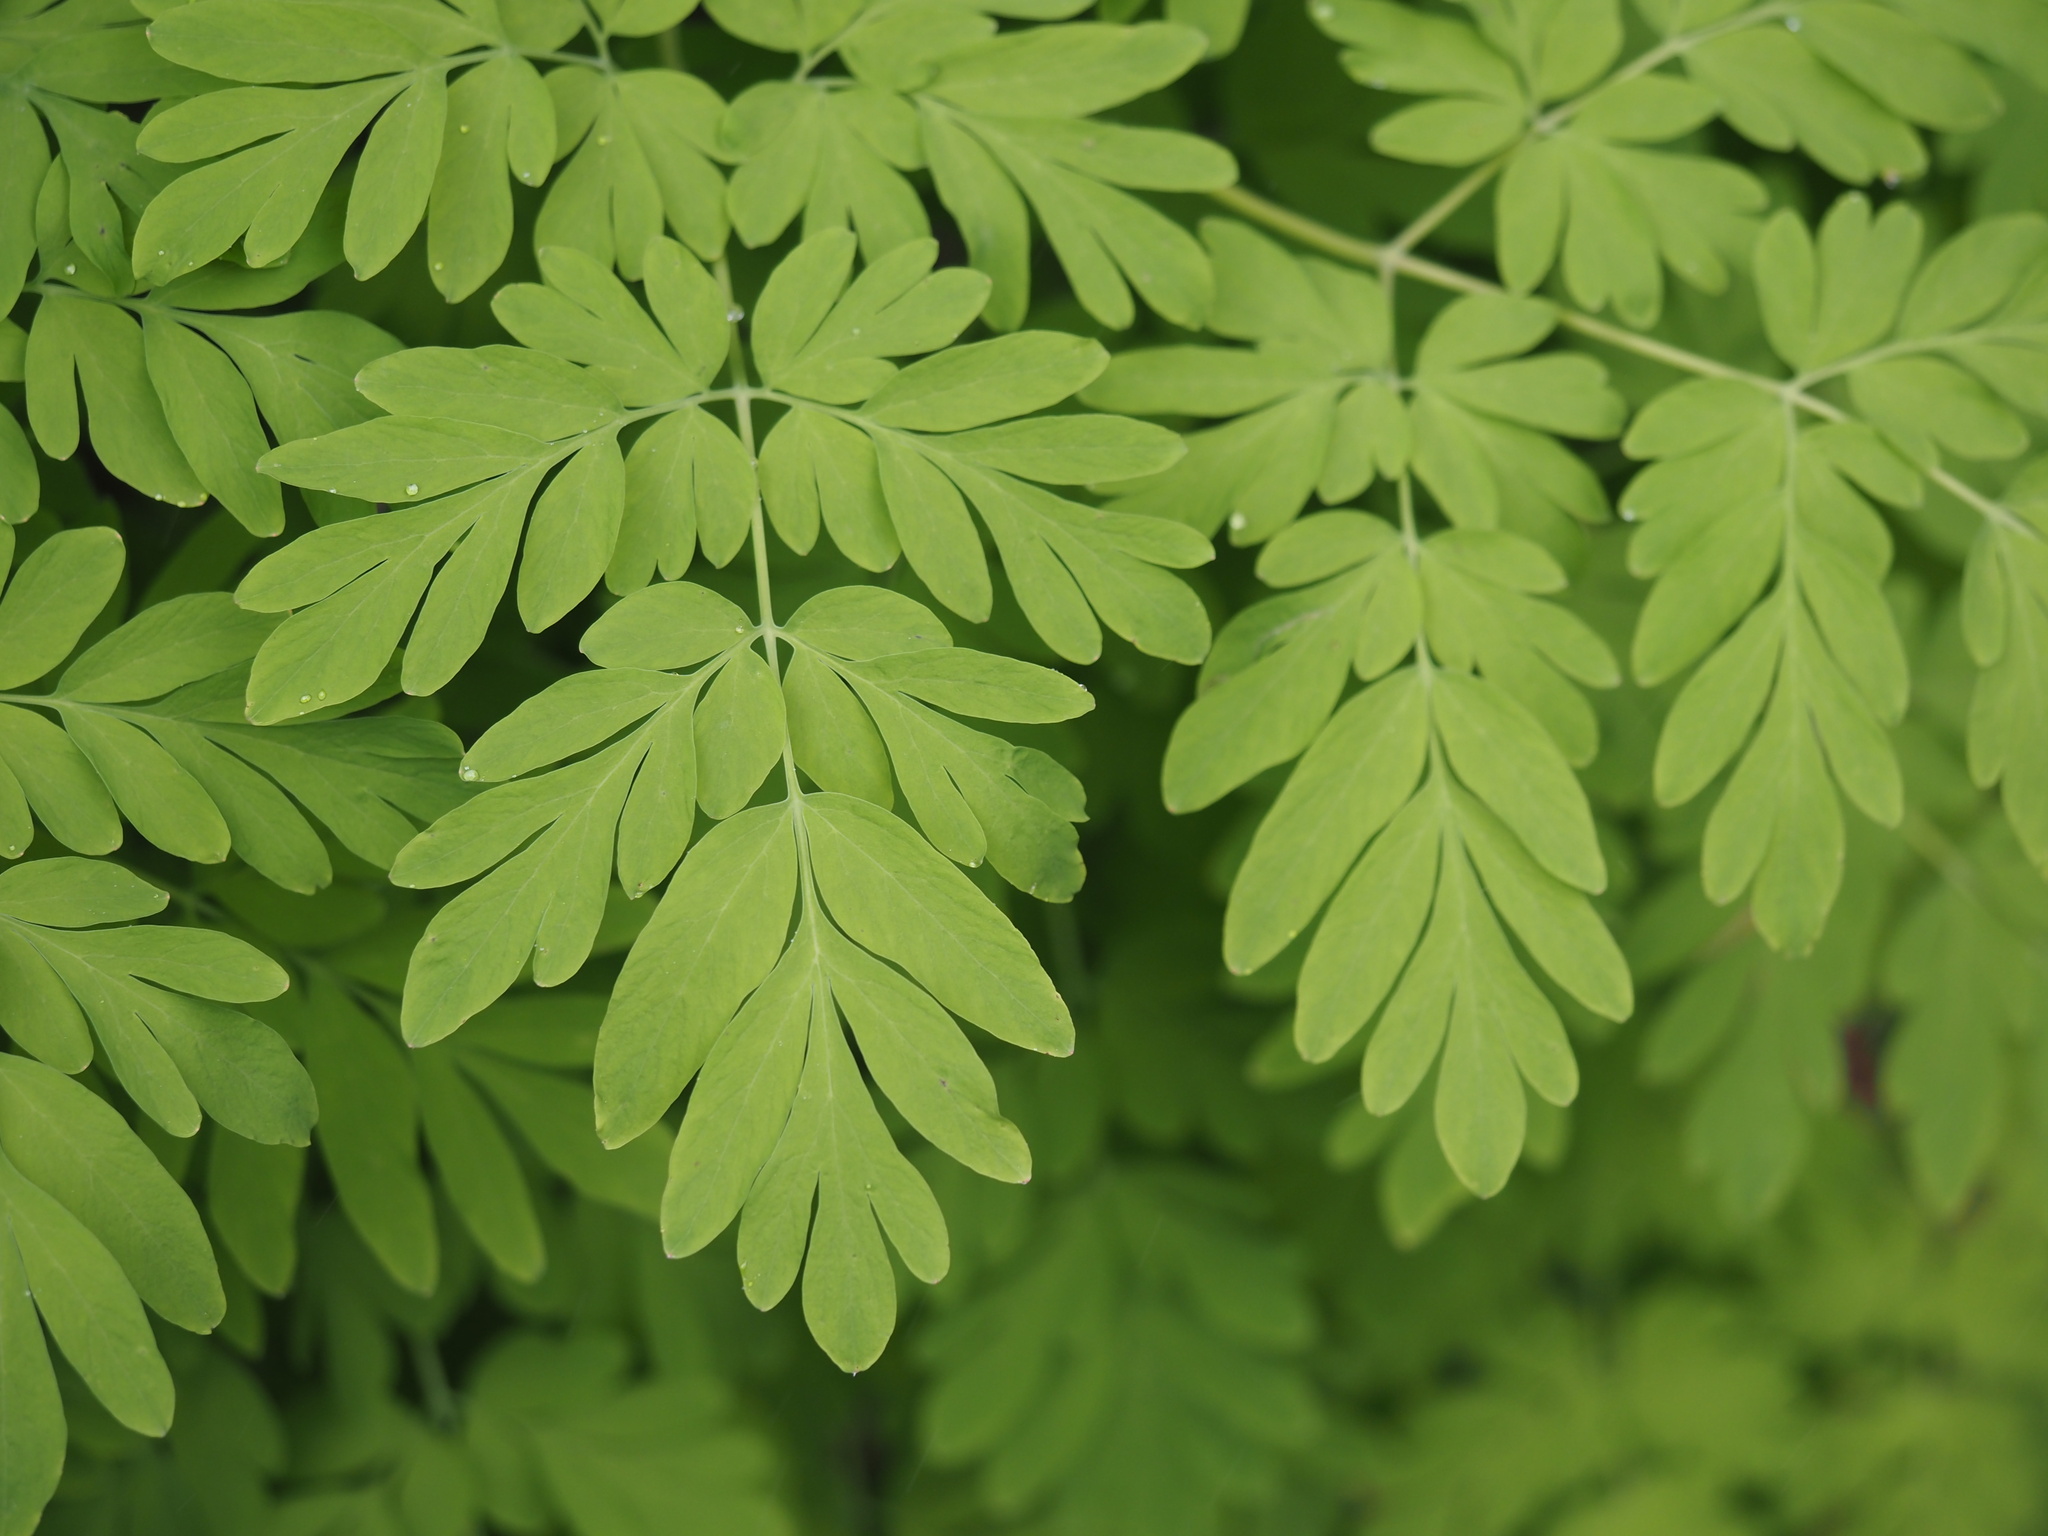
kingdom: Plantae
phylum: Tracheophyta
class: Magnoliopsida
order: Ranunculales
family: Papaveraceae
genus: Corydalis
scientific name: Corydalis scouleri
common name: Scouler's corydalis
